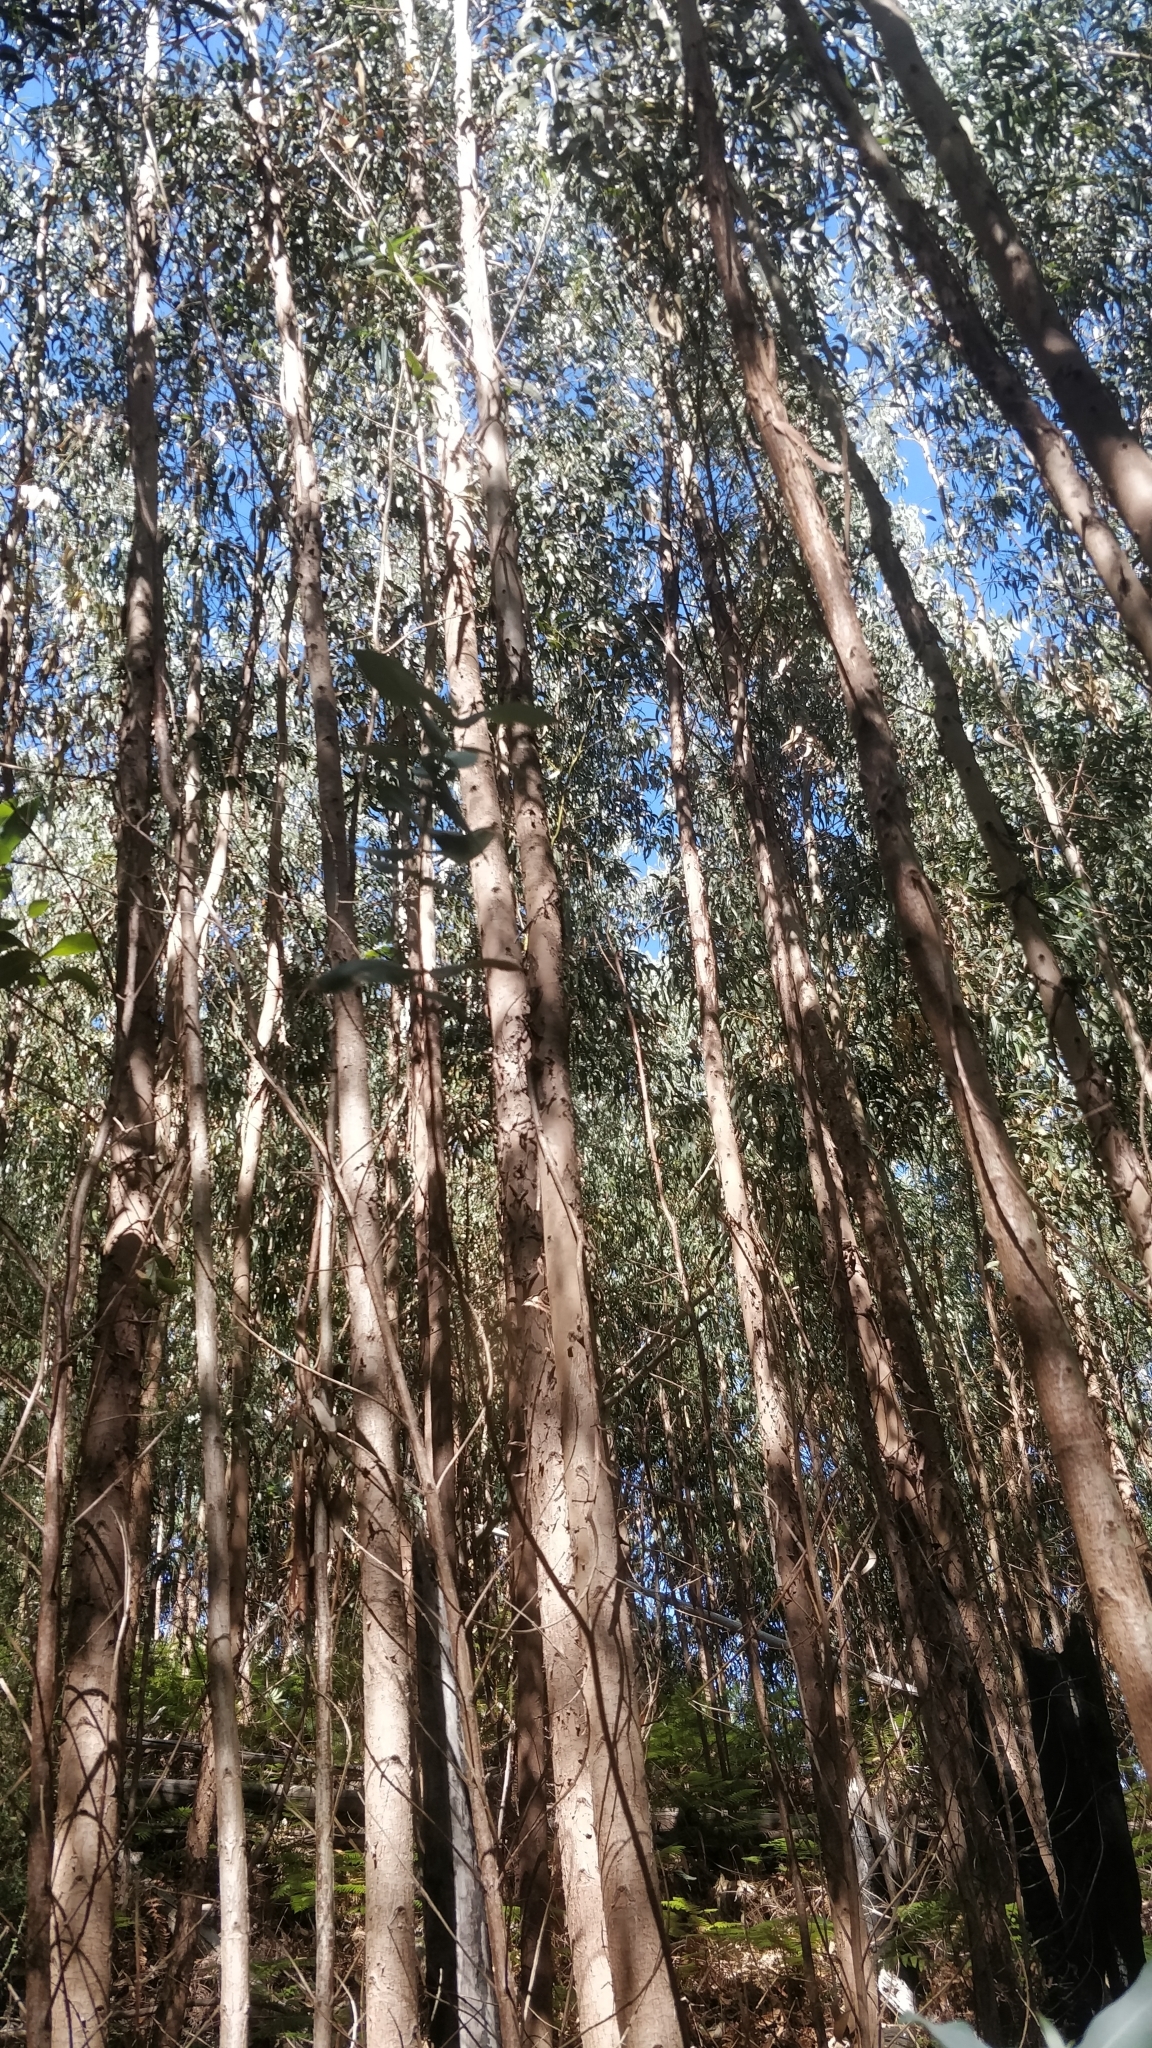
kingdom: Plantae
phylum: Tracheophyta
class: Magnoliopsida
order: Myrtales
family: Myrtaceae
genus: Eucalyptus
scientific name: Eucalyptus globulus
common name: Southern blue-gum
